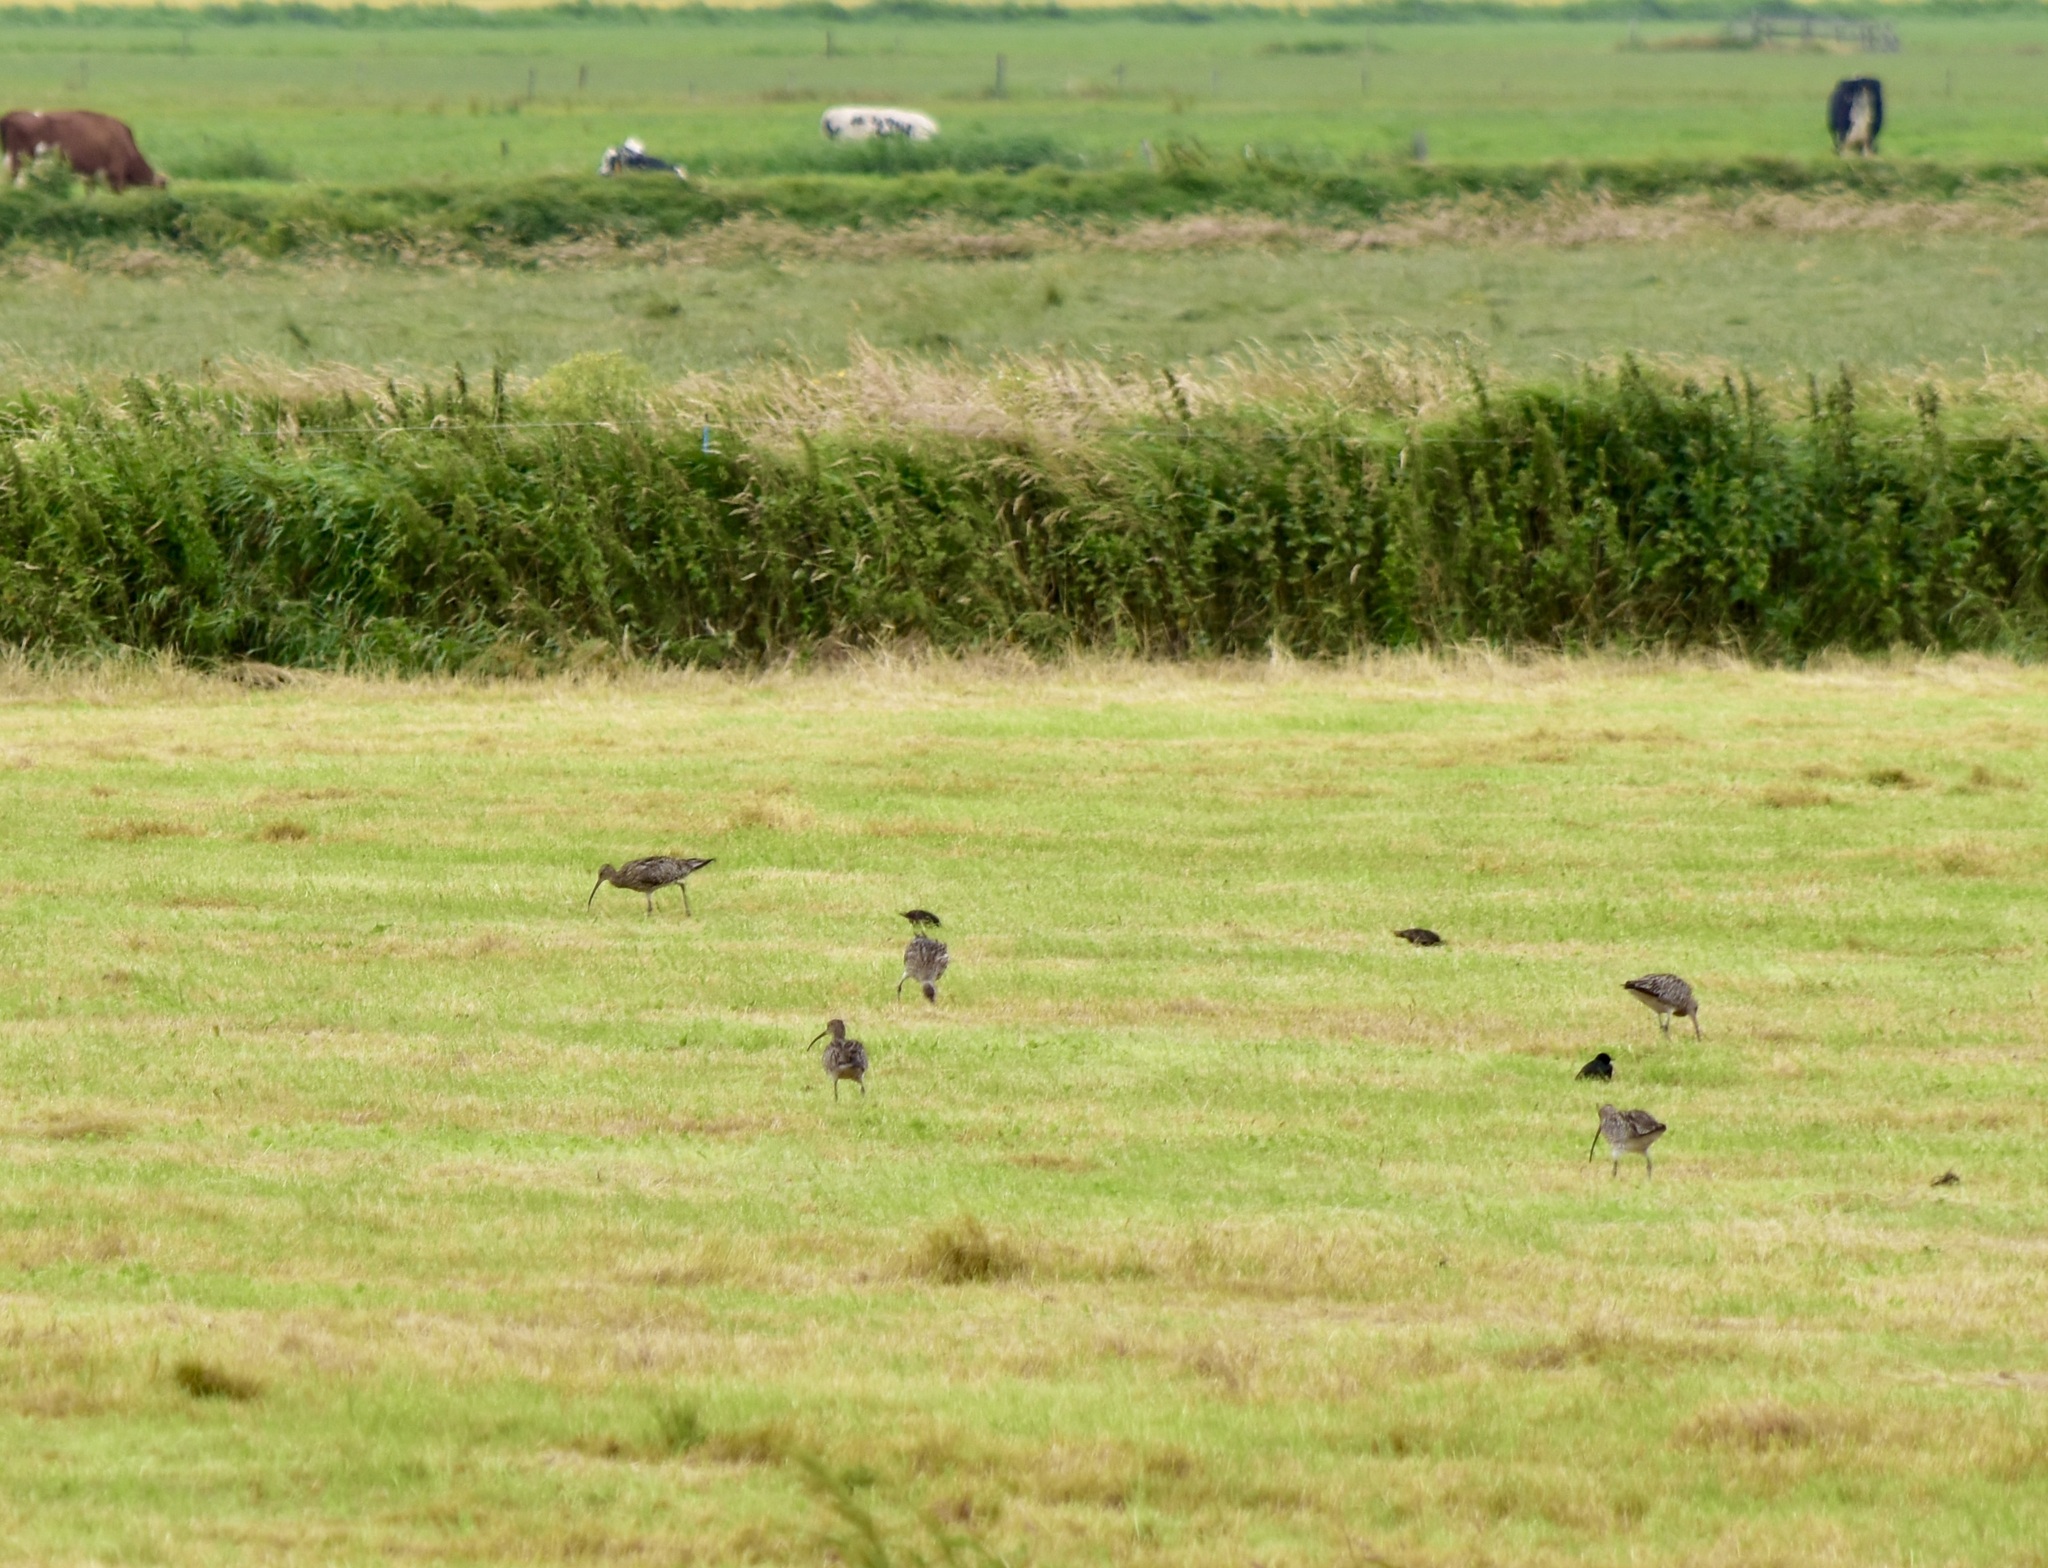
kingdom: Animalia
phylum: Chordata
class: Aves
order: Charadriiformes
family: Scolopacidae
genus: Numenius
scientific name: Numenius arquata
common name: Eurasian curlew
